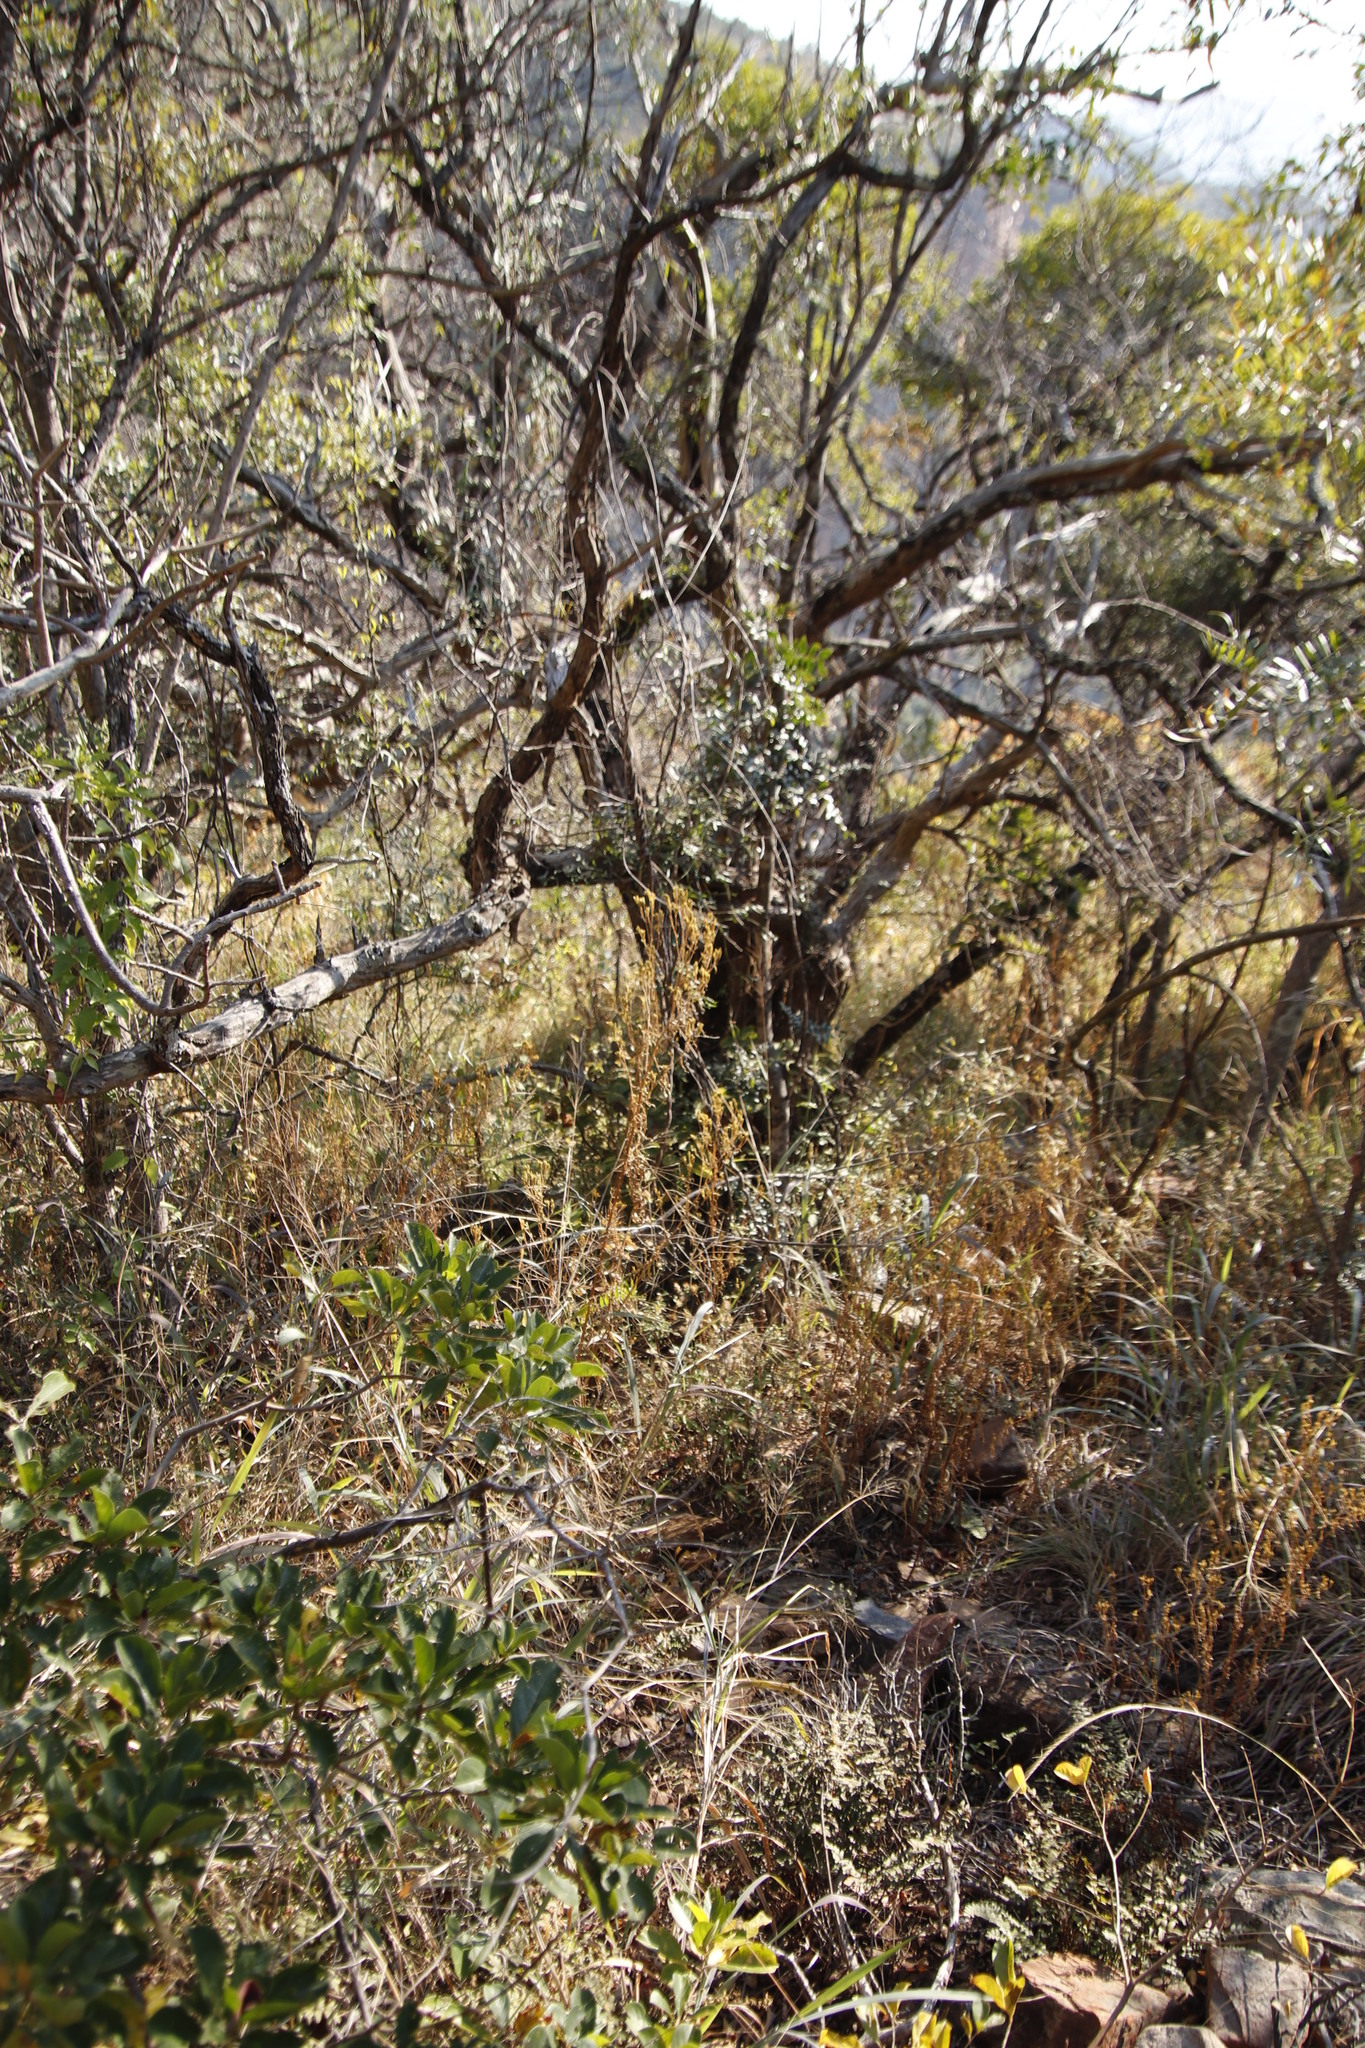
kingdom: Plantae
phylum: Tracheophyta
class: Magnoliopsida
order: Asterales
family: Asteraceae
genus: Tagetes
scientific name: Tagetes minuta
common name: Muster john henry
